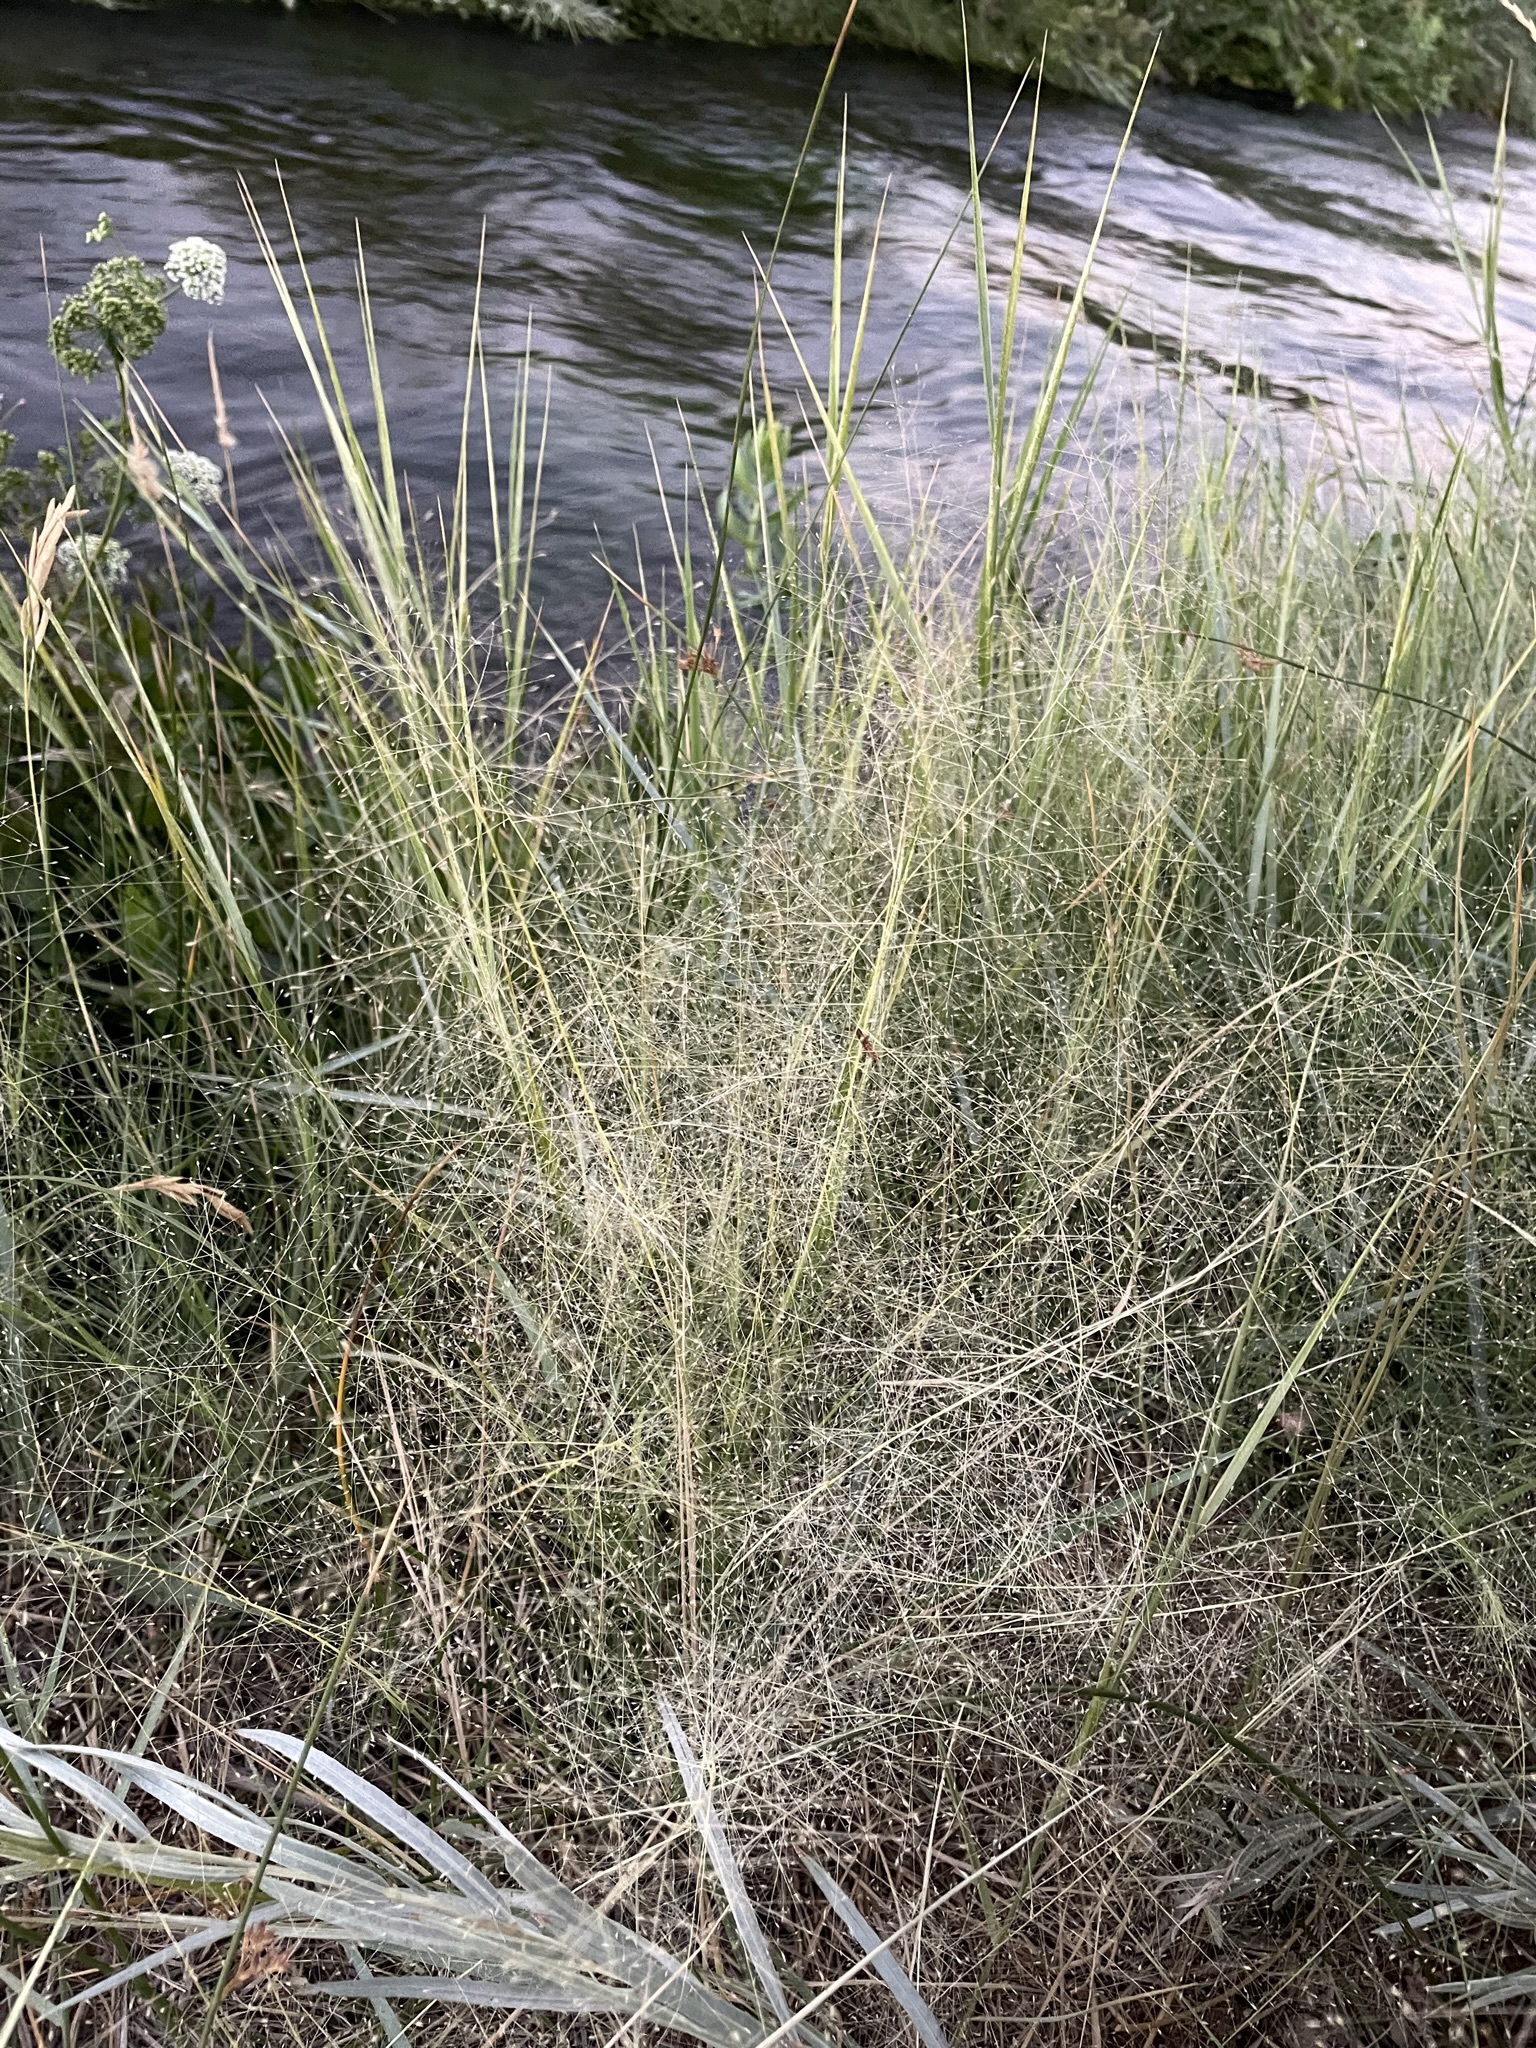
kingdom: Plantae
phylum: Tracheophyta
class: Liliopsida
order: Poales
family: Poaceae
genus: Muhlenbergia
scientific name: Muhlenbergia asperifolia
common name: Alkali muhly
